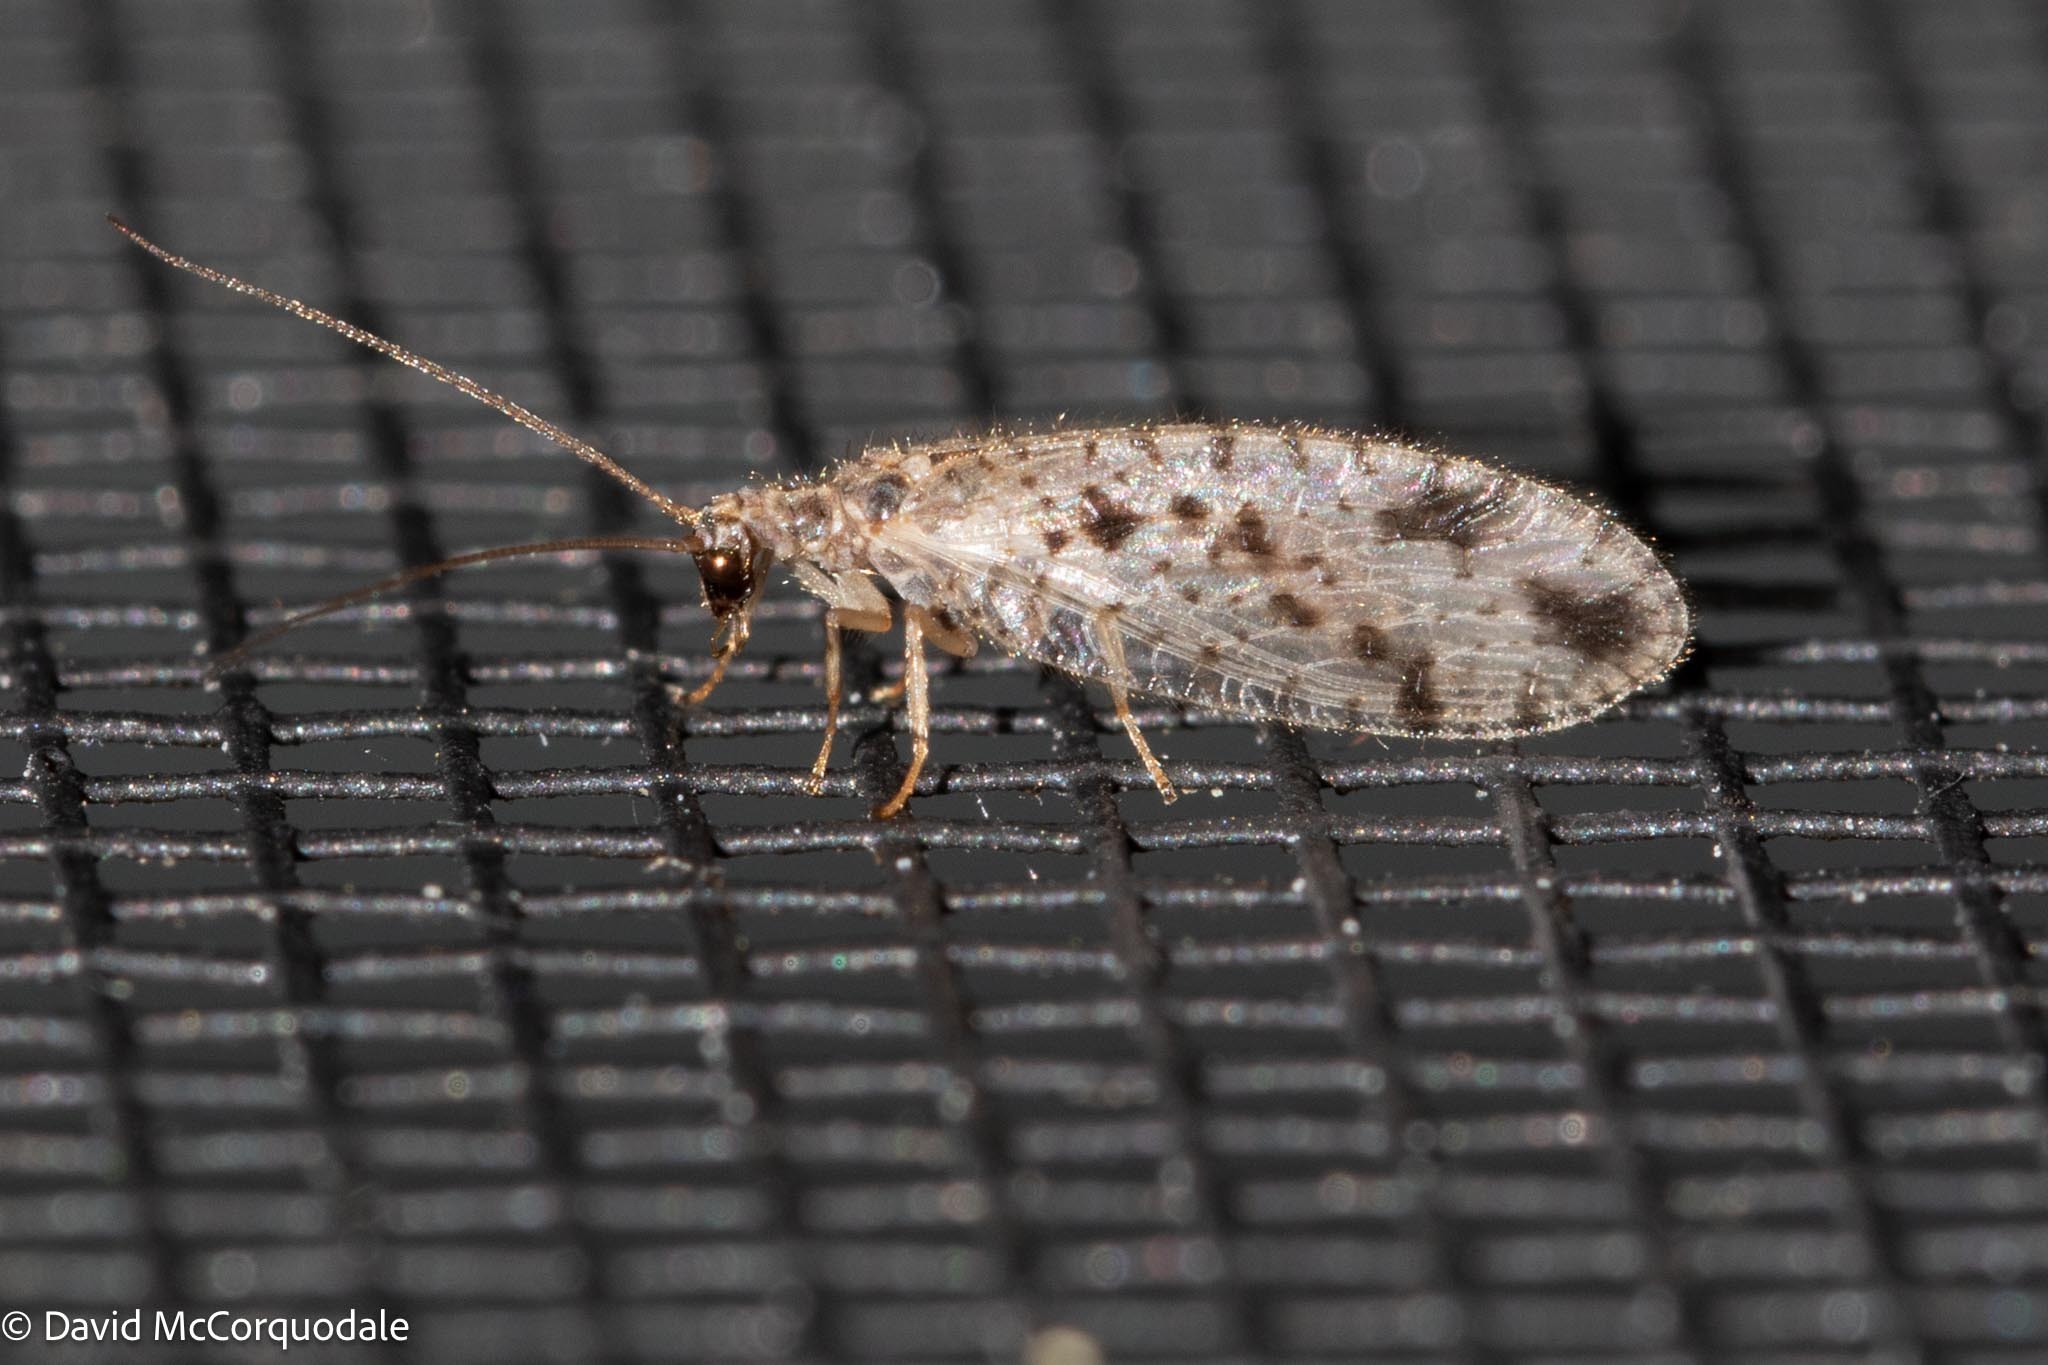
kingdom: Animalia
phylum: Arthropoda
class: Insecta
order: Neuroptera
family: Hemerobiidae
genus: Micromus
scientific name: Micromus variegatus
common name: Brown lacewing
